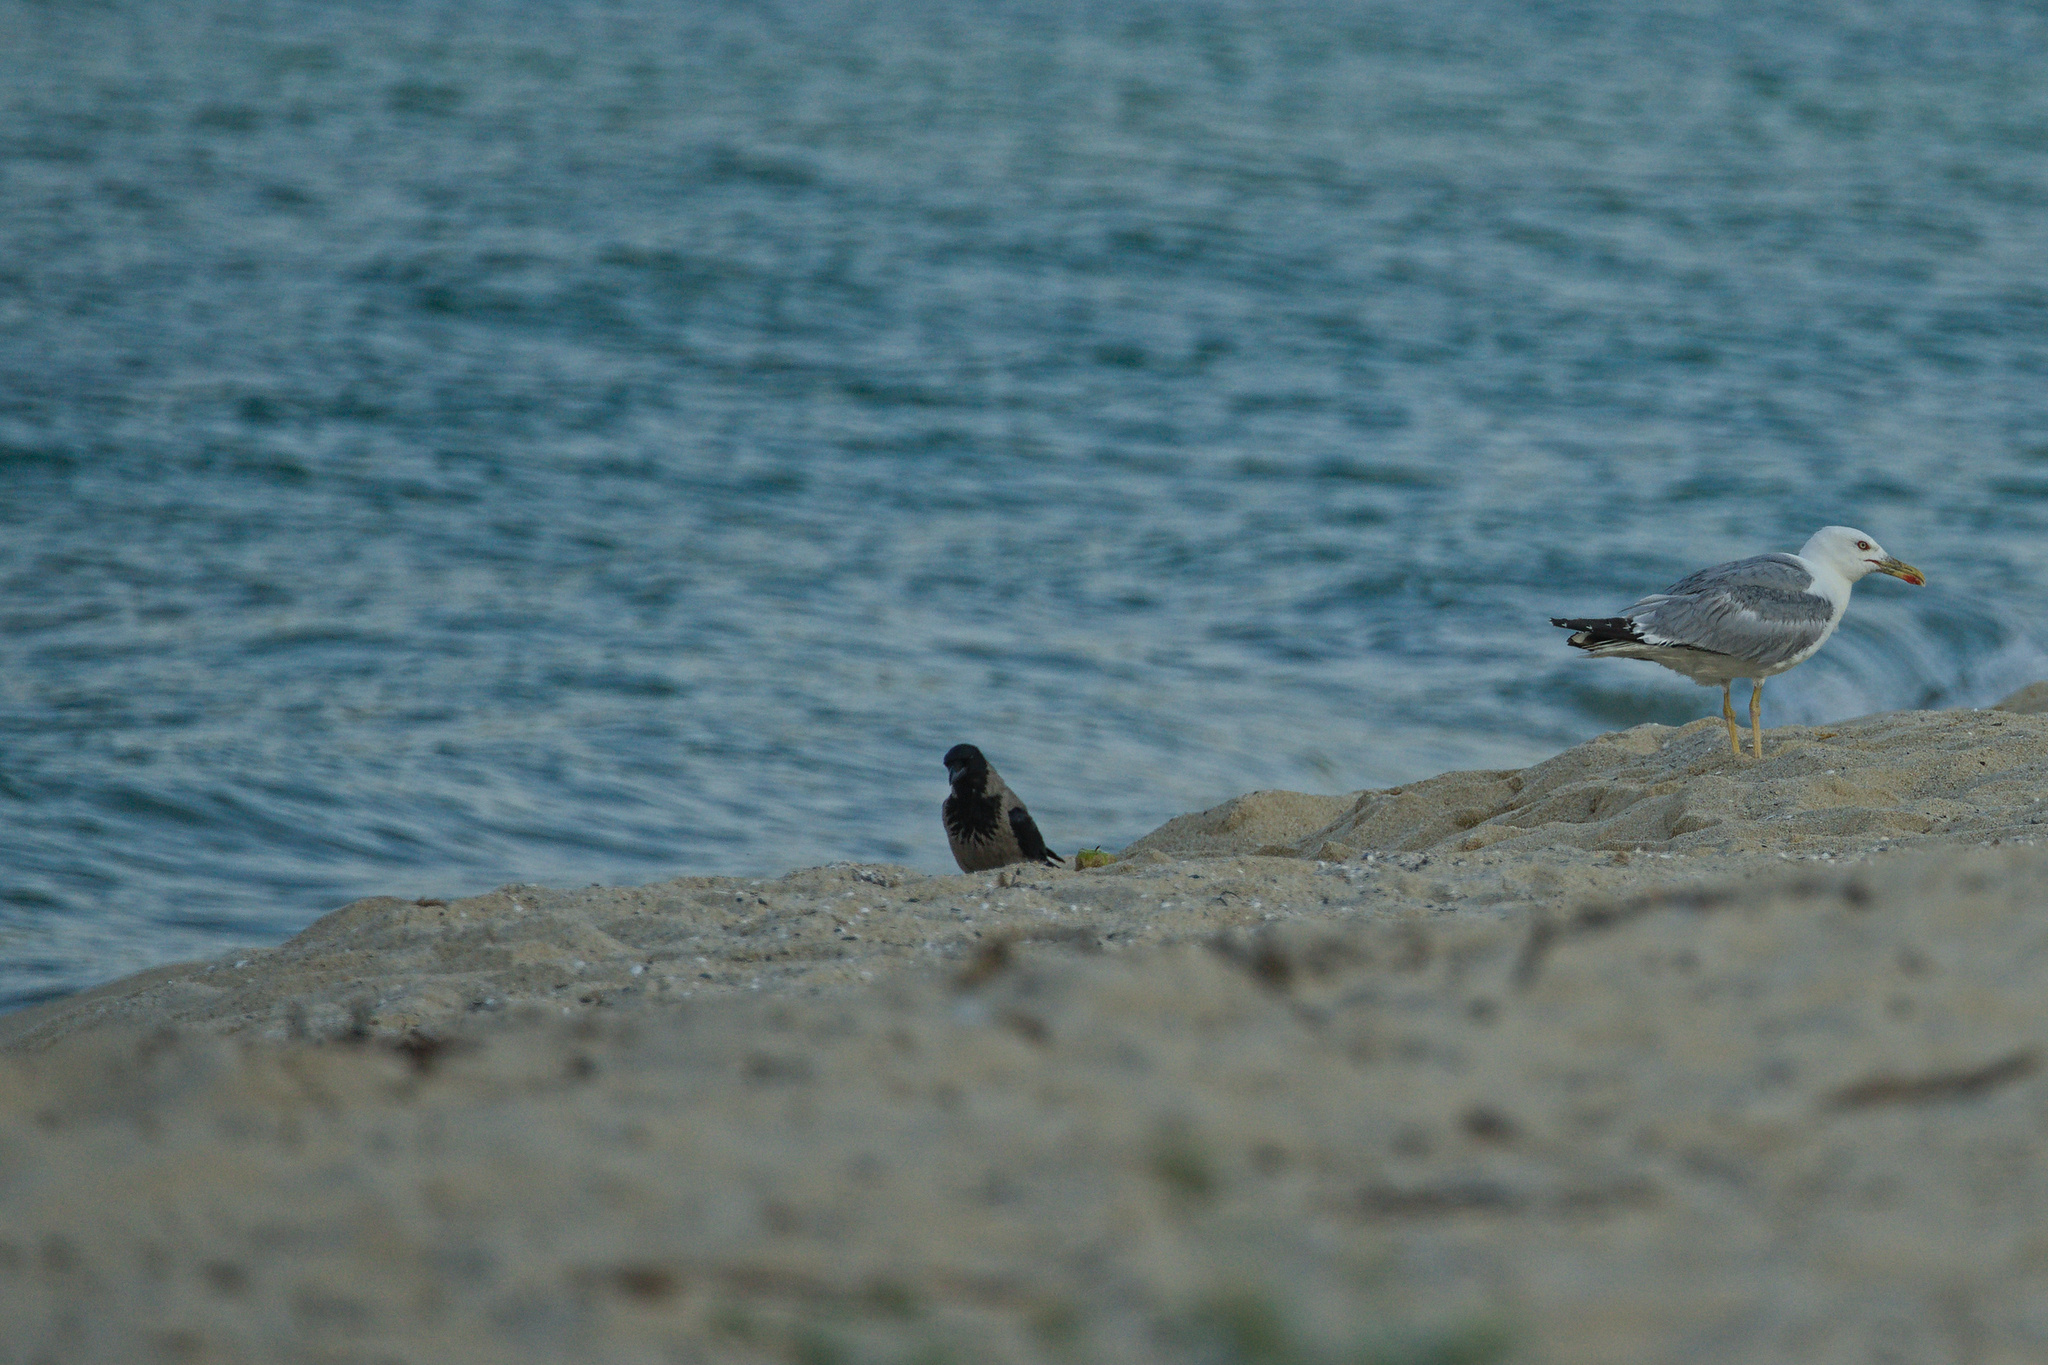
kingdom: Animalia
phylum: Chordata
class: Aves
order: Charadriiformes
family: Laridae
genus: Larus
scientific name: Larus michahellis
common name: Yellow-legged gull
